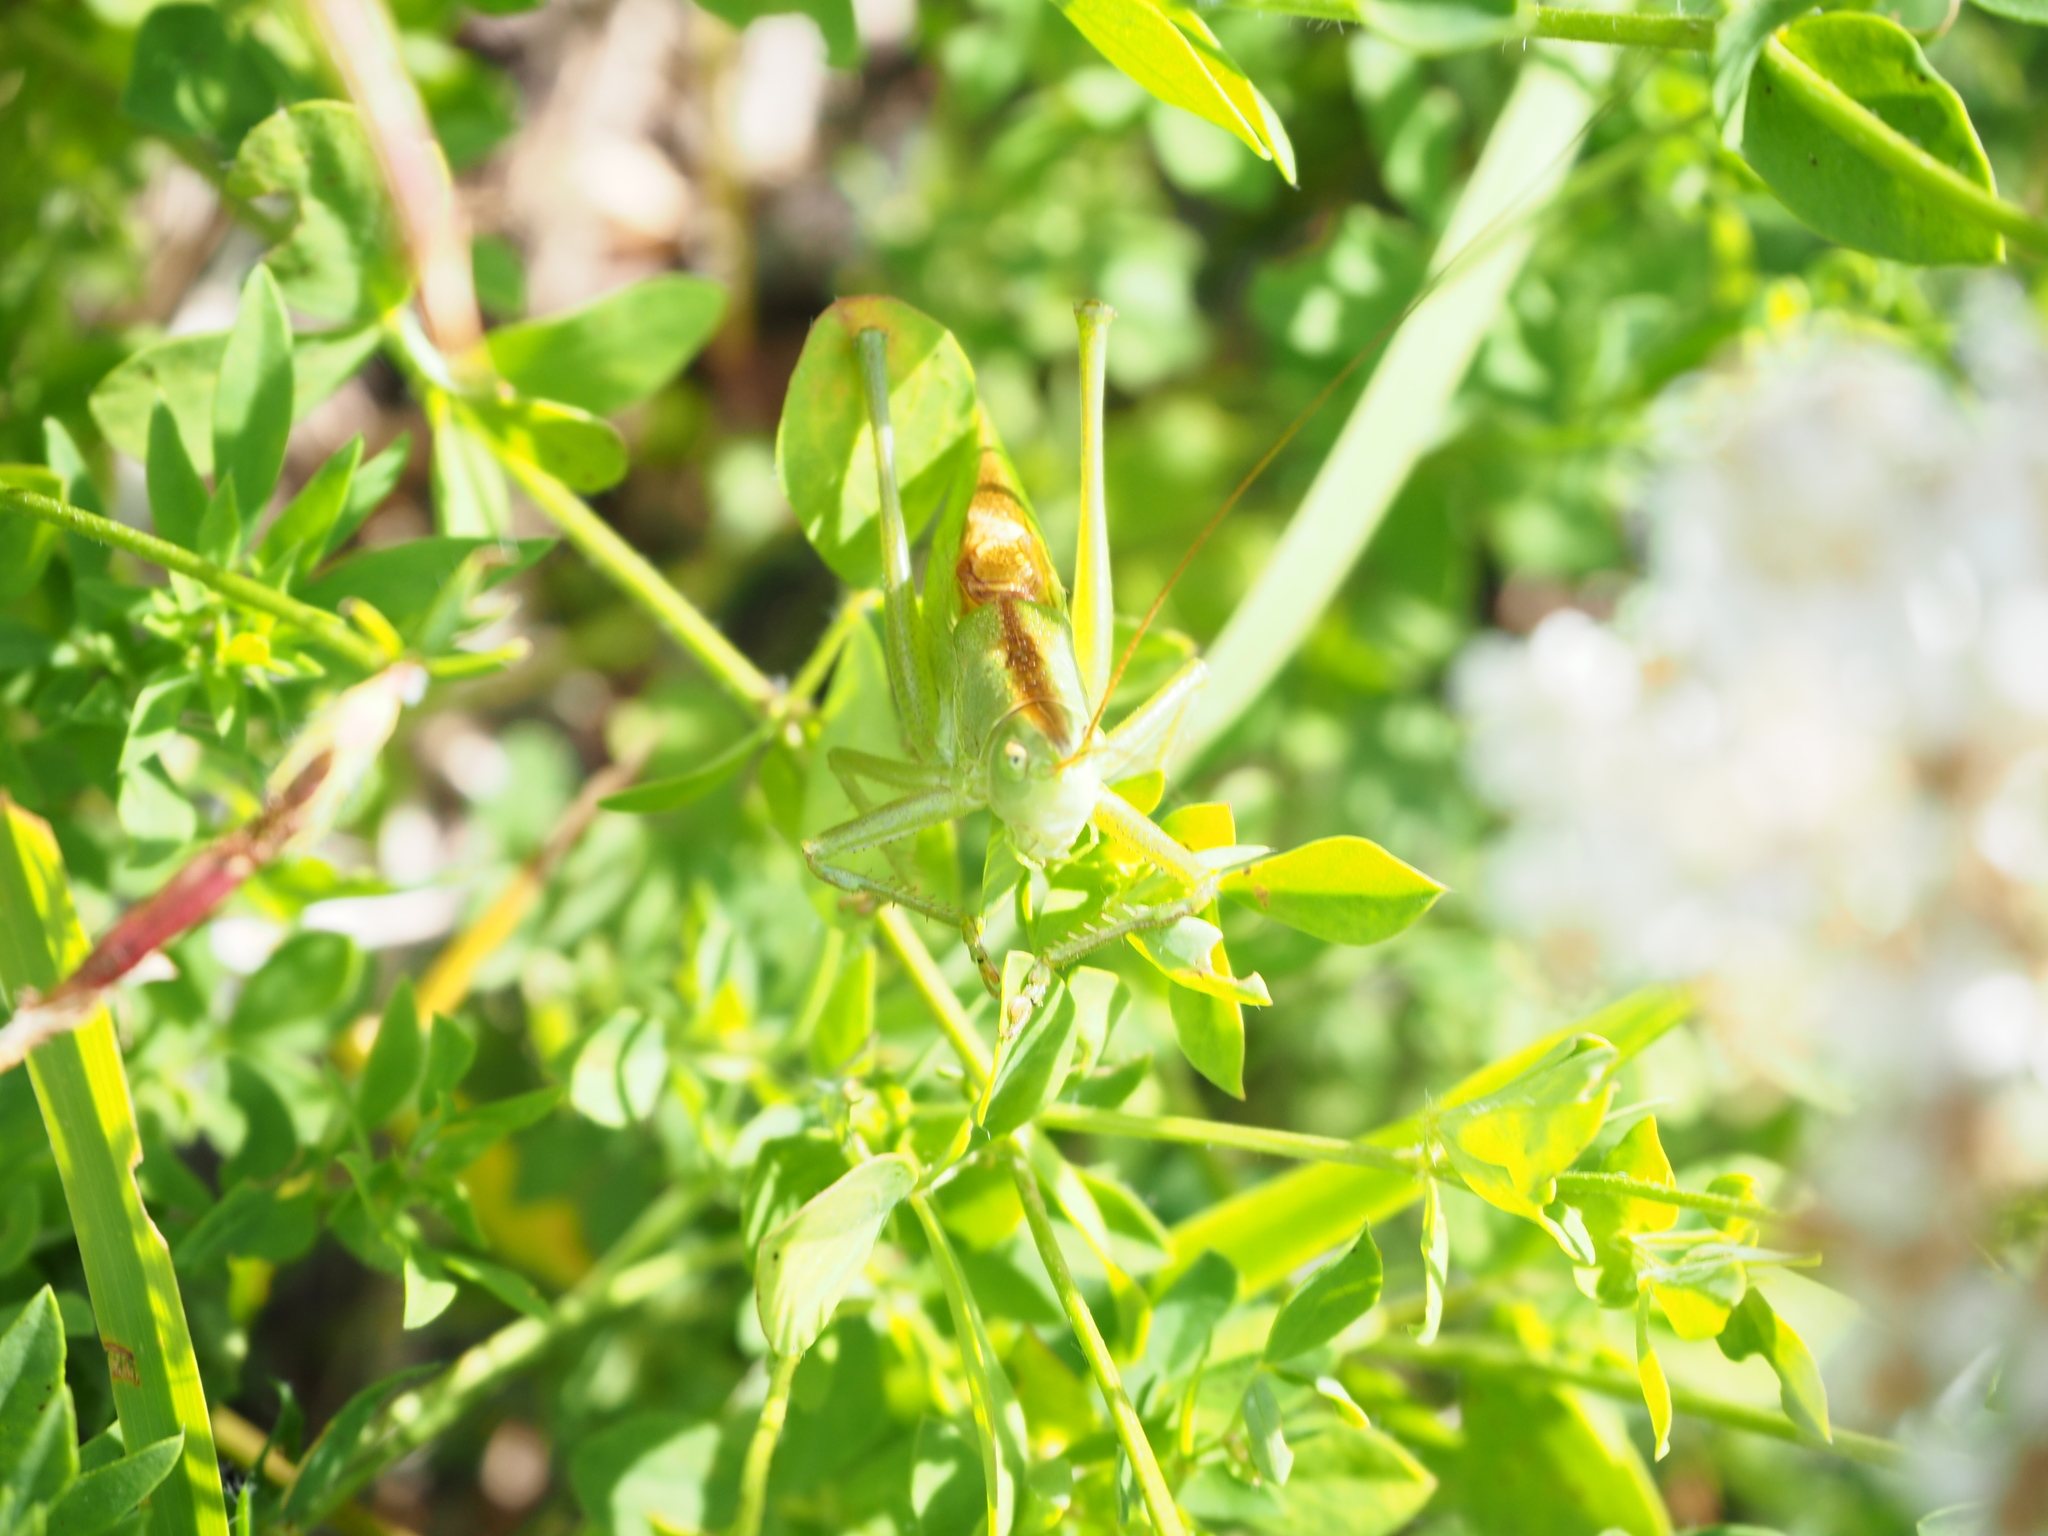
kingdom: Animalia
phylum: Arthropoda
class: Insecta
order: Orthoptera
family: Tettigoniidae
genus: Tettigonia
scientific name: Tettigonia cantans
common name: Upland green bush-cricket
